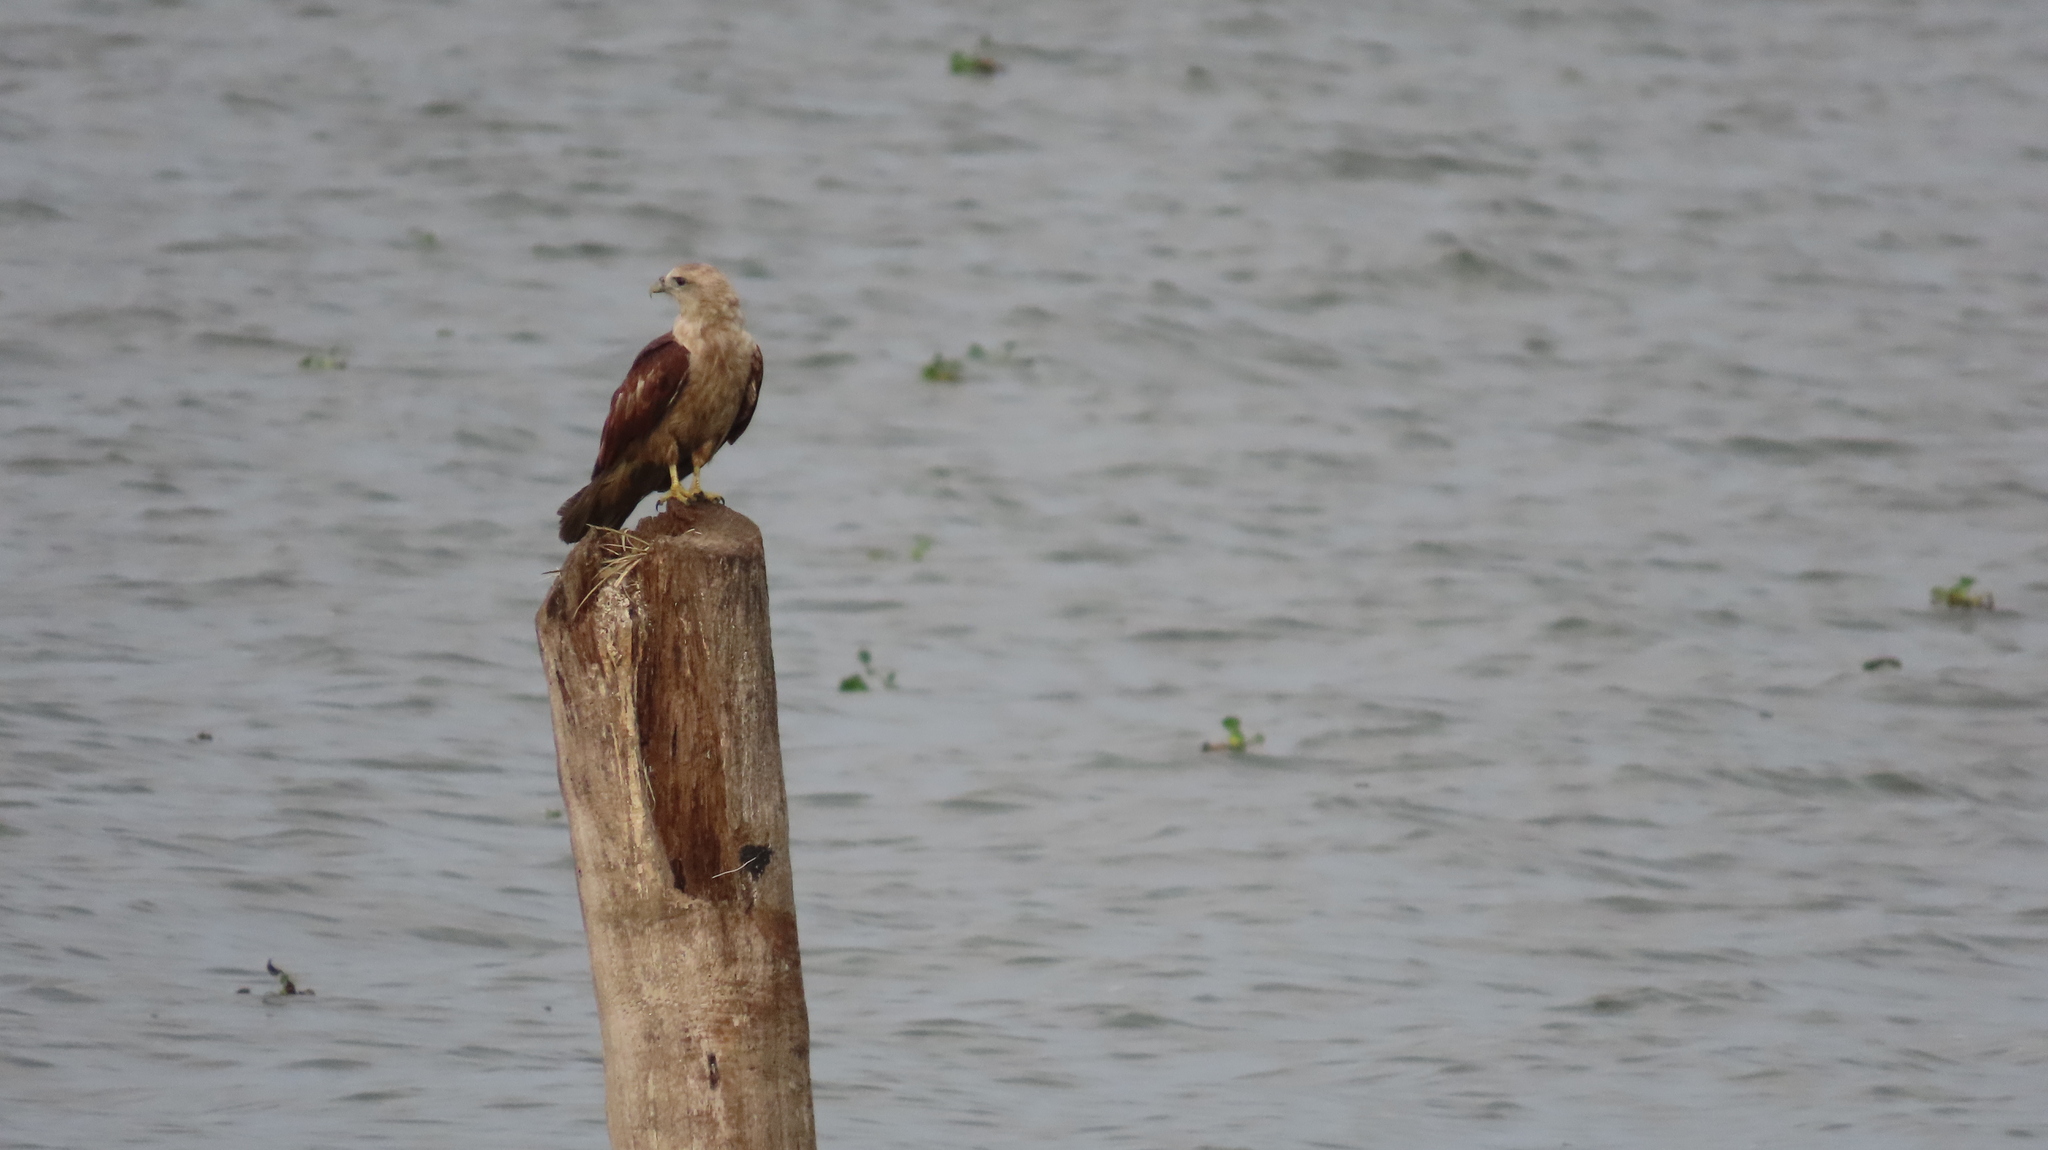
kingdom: Animalia
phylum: Chordata
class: Aves
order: Accipitriformes
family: Accipitridae
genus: Haliastur
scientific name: Haliastur indus
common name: Brahminy kite
